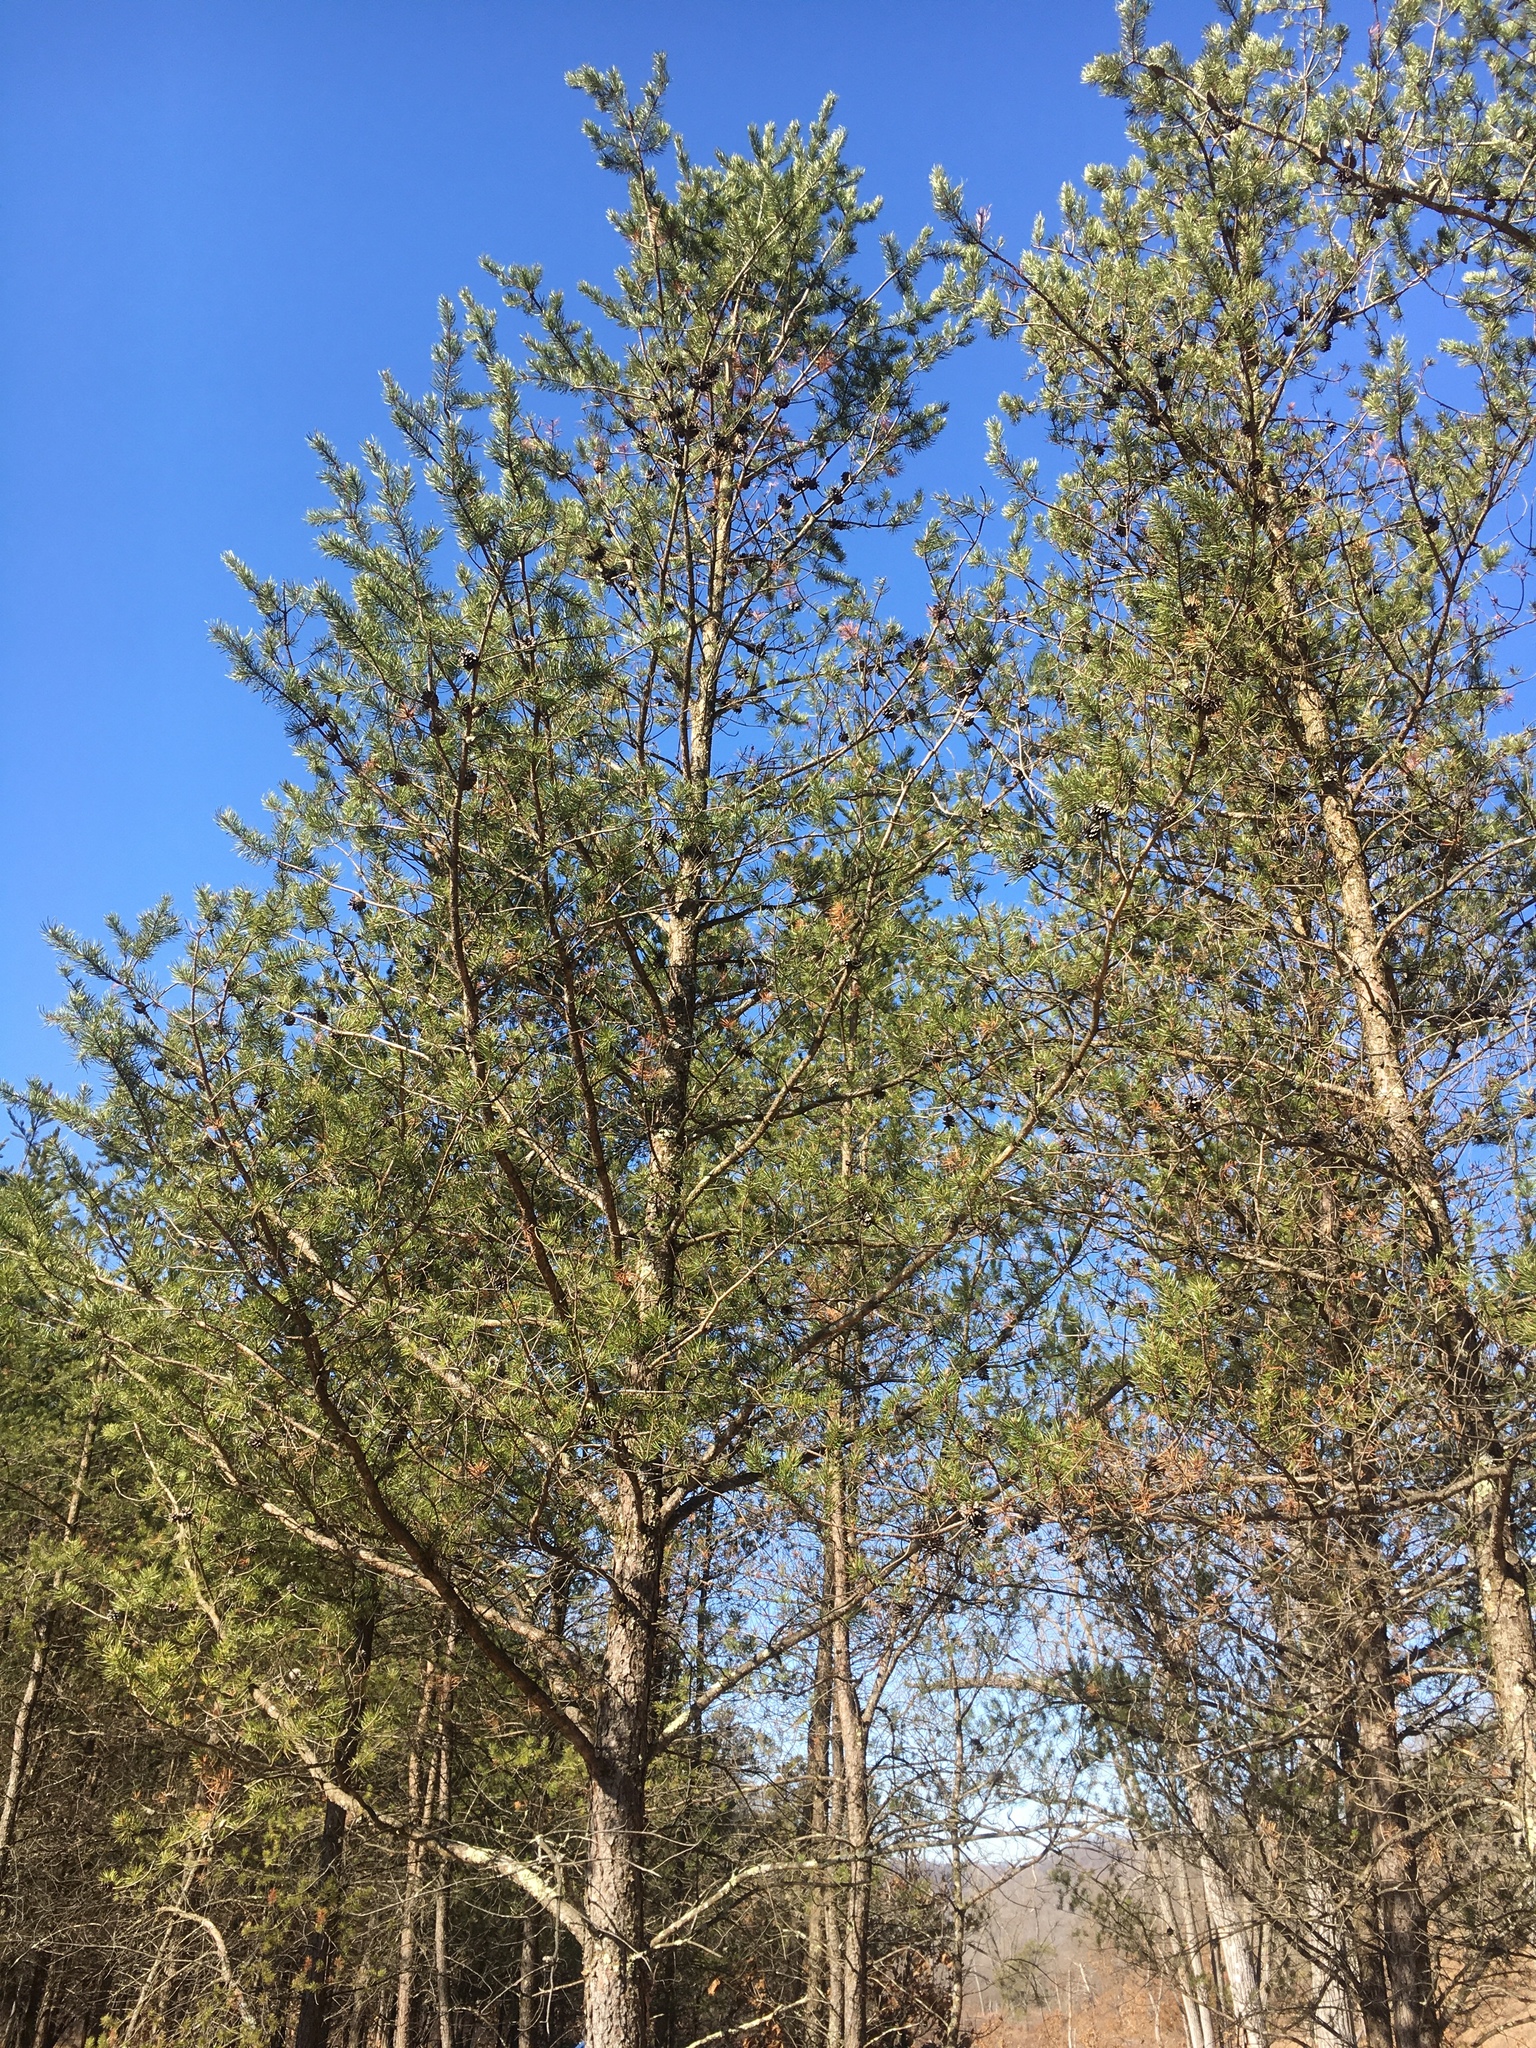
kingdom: Plantae
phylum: Tracheophyta
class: Pinopsida
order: Pinales
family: Pinaceae
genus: Pinus
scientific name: Pinus banksiana
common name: Jack pine
